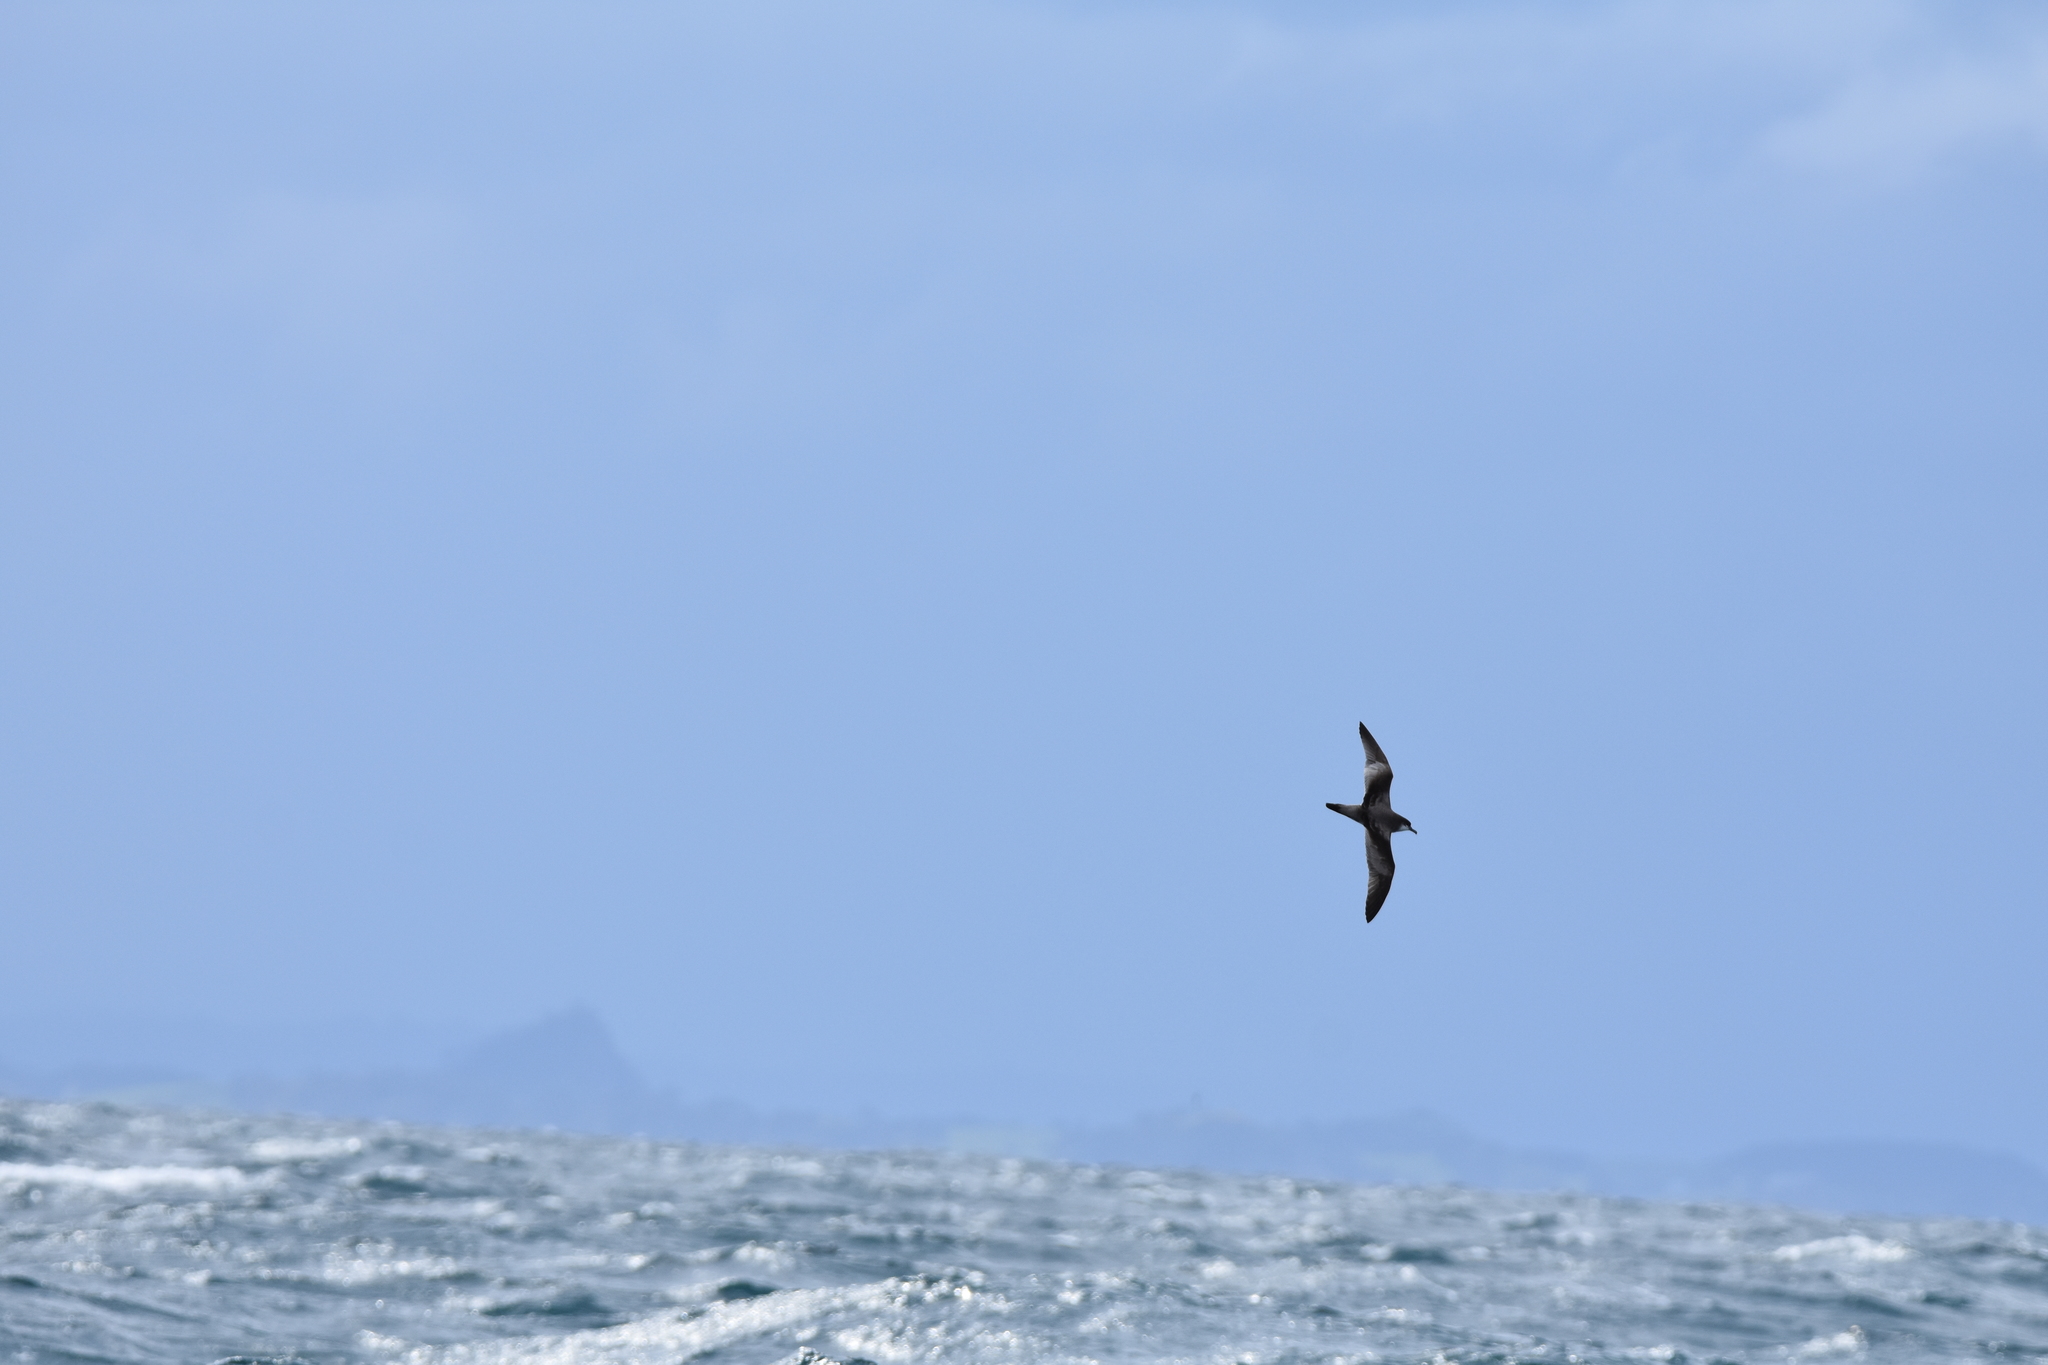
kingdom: Animalia
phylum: Chordata
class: Aves
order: Procellariiformes
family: Procellariidae
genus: Puffinus
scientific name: Puffinus bulleri
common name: Buller's shearwater
